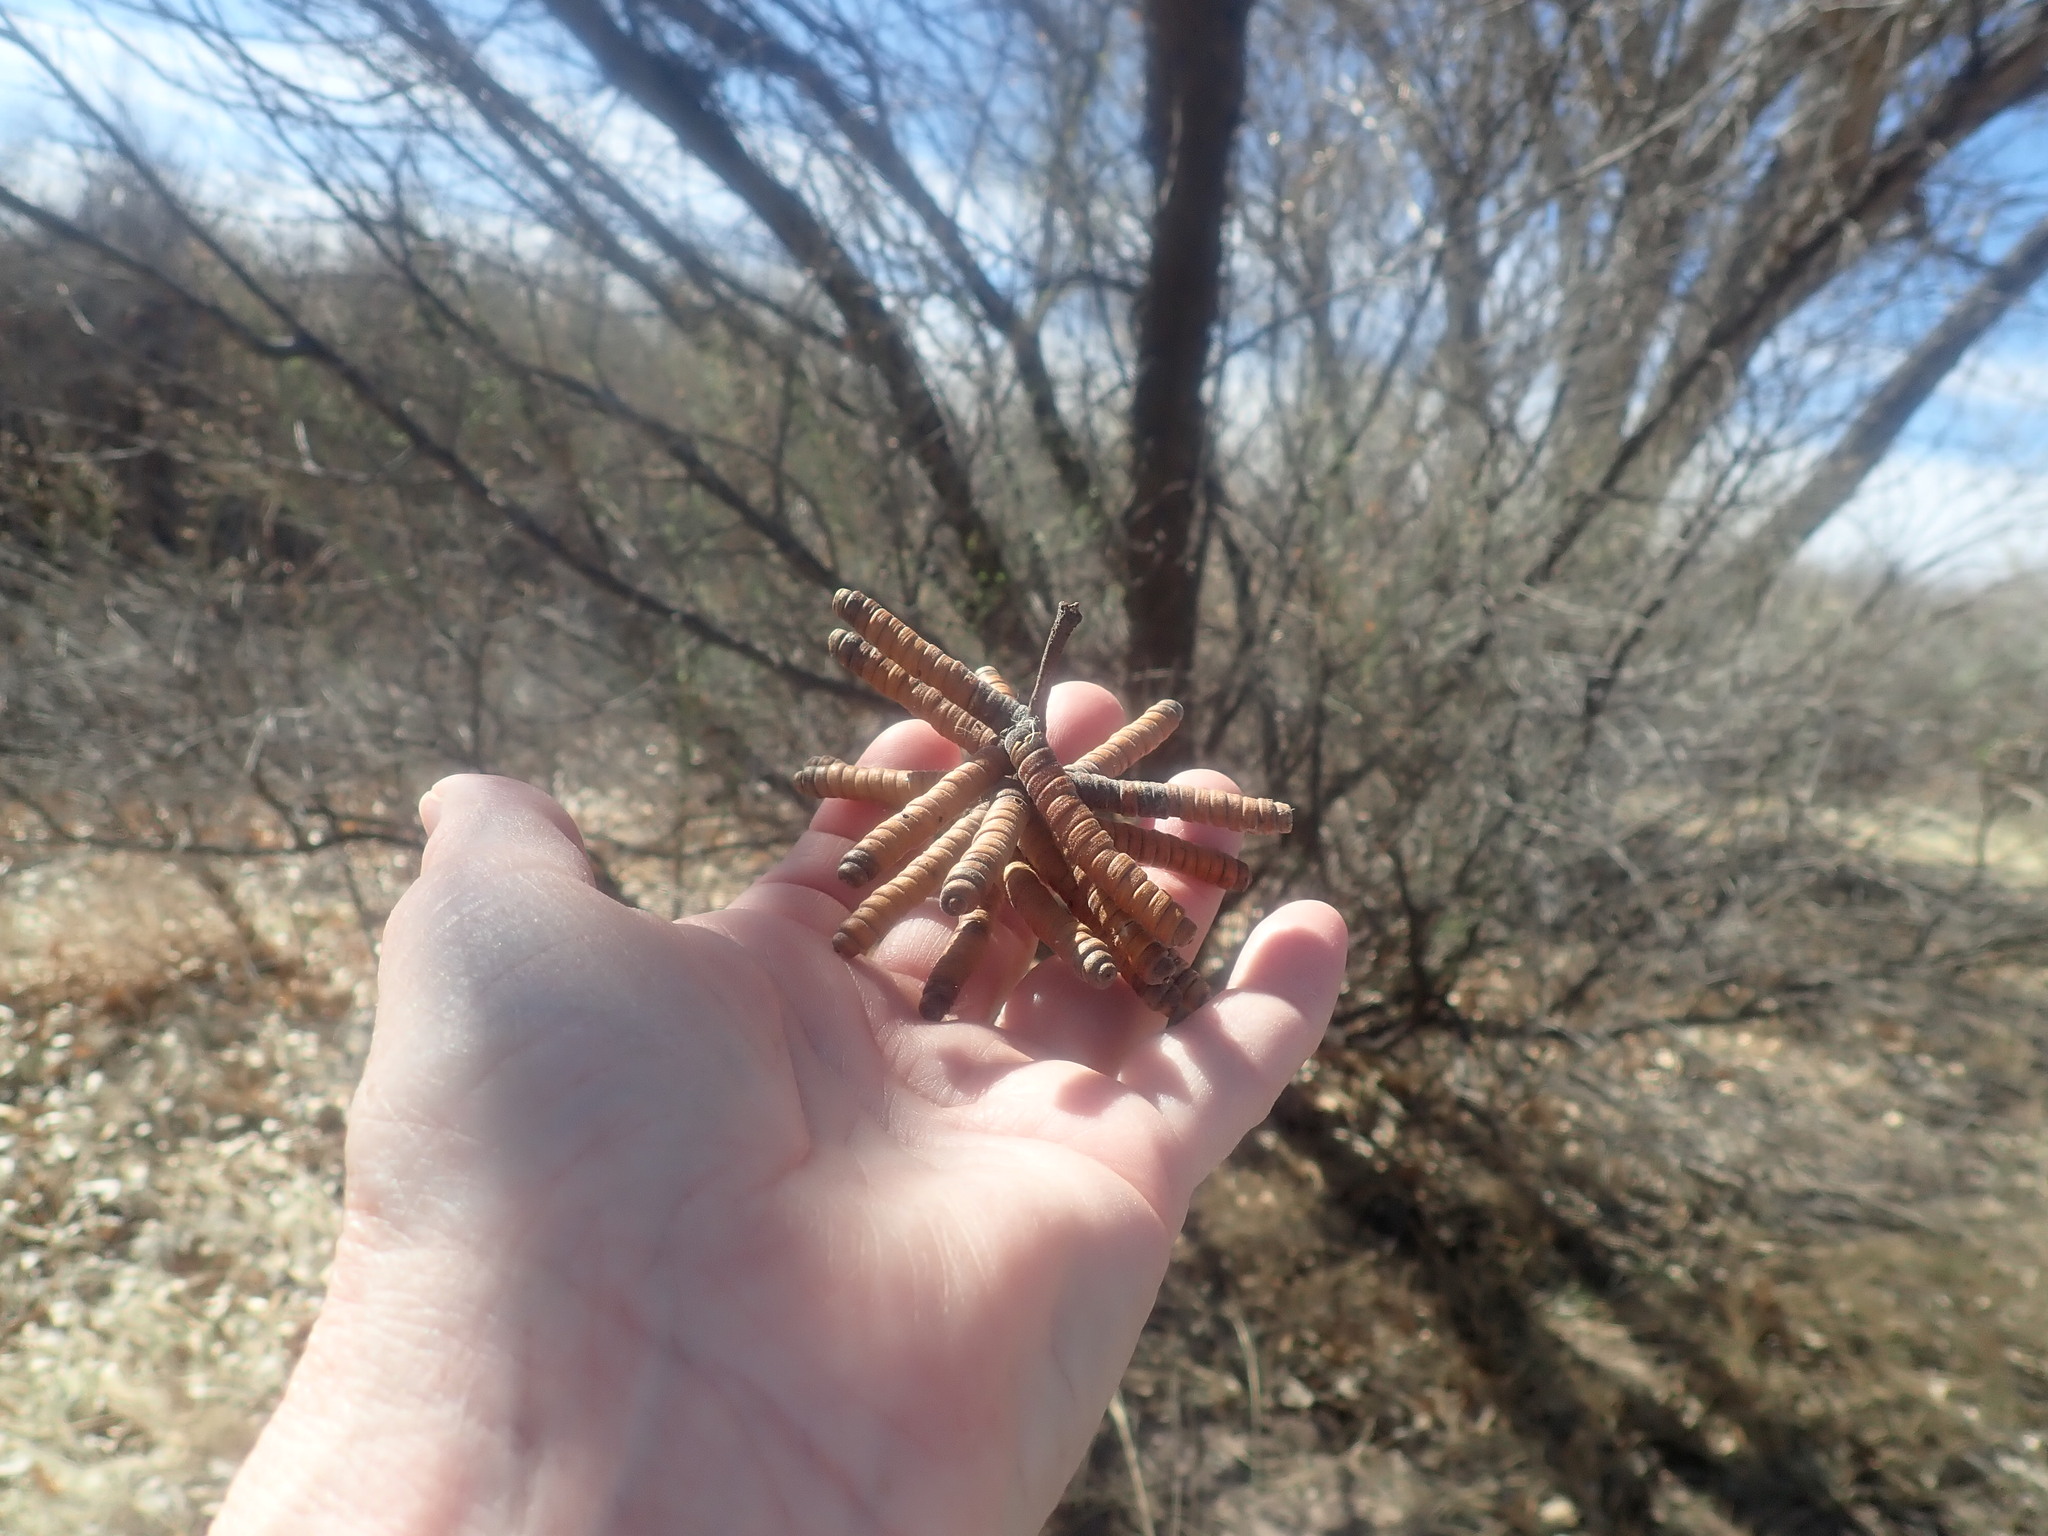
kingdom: Plantae
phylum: Tracheophyta
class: Magnoliopsida
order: Fabales
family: Fabaceae
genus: Prosopis
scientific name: Prosopis pubescens
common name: Screw-bean
